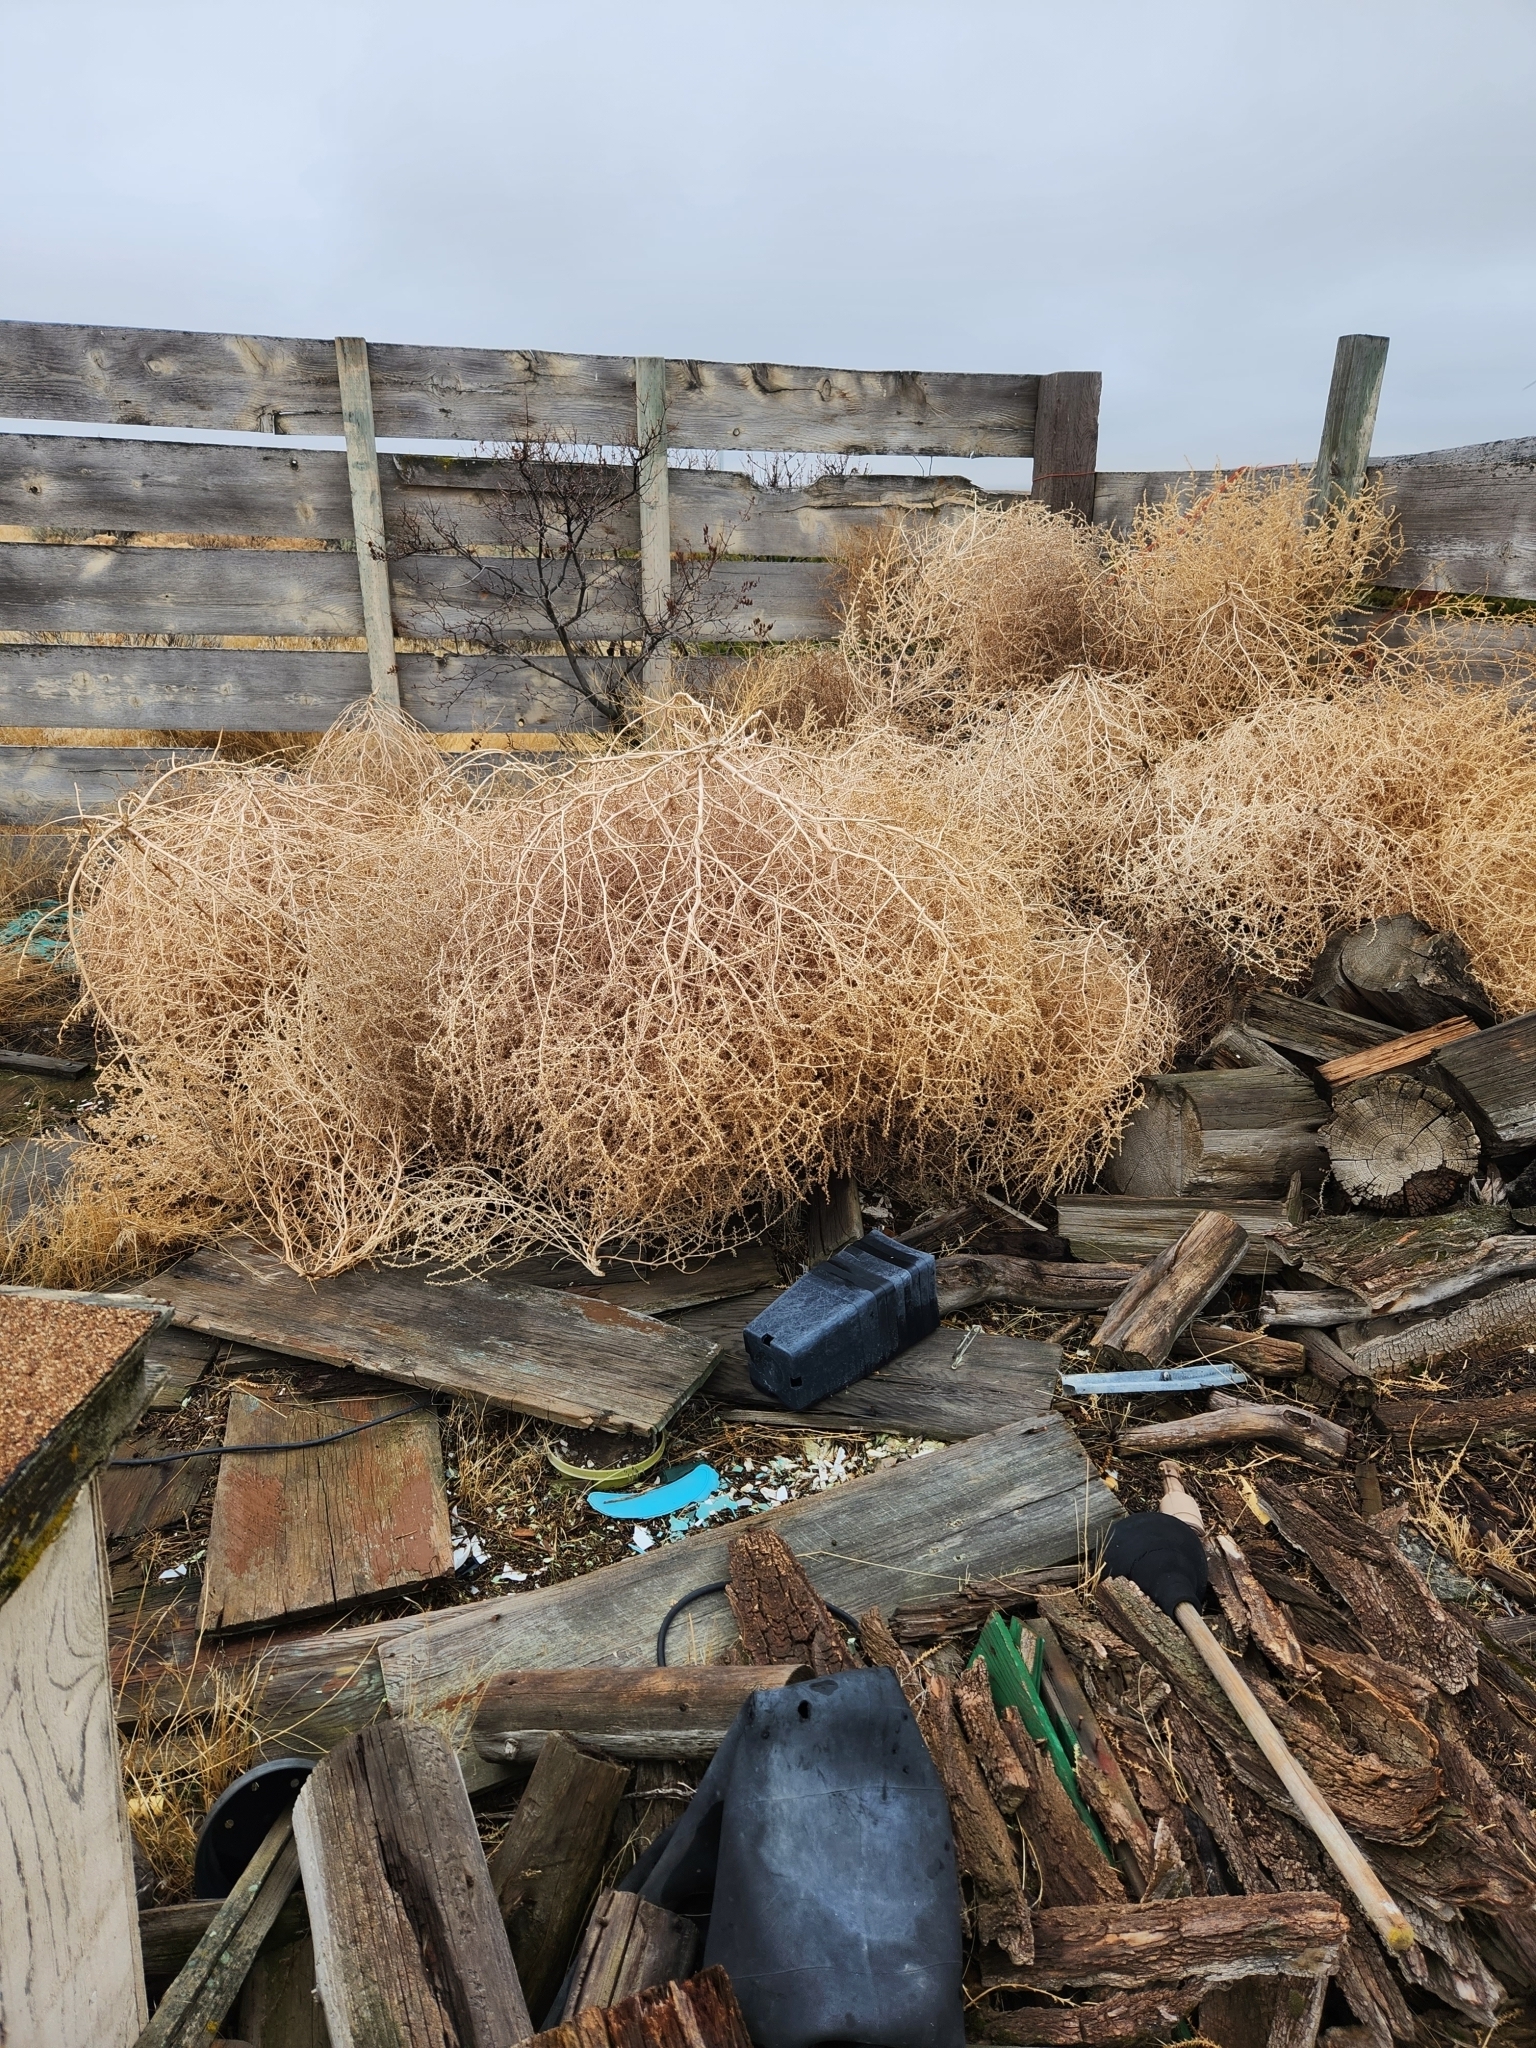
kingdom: Plantae
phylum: Tracheophyta
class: Magnoliopsida
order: Caryophyllales
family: Amaranthaceae
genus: Salsola
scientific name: Salsola tragus
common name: Prickly russian thistle
